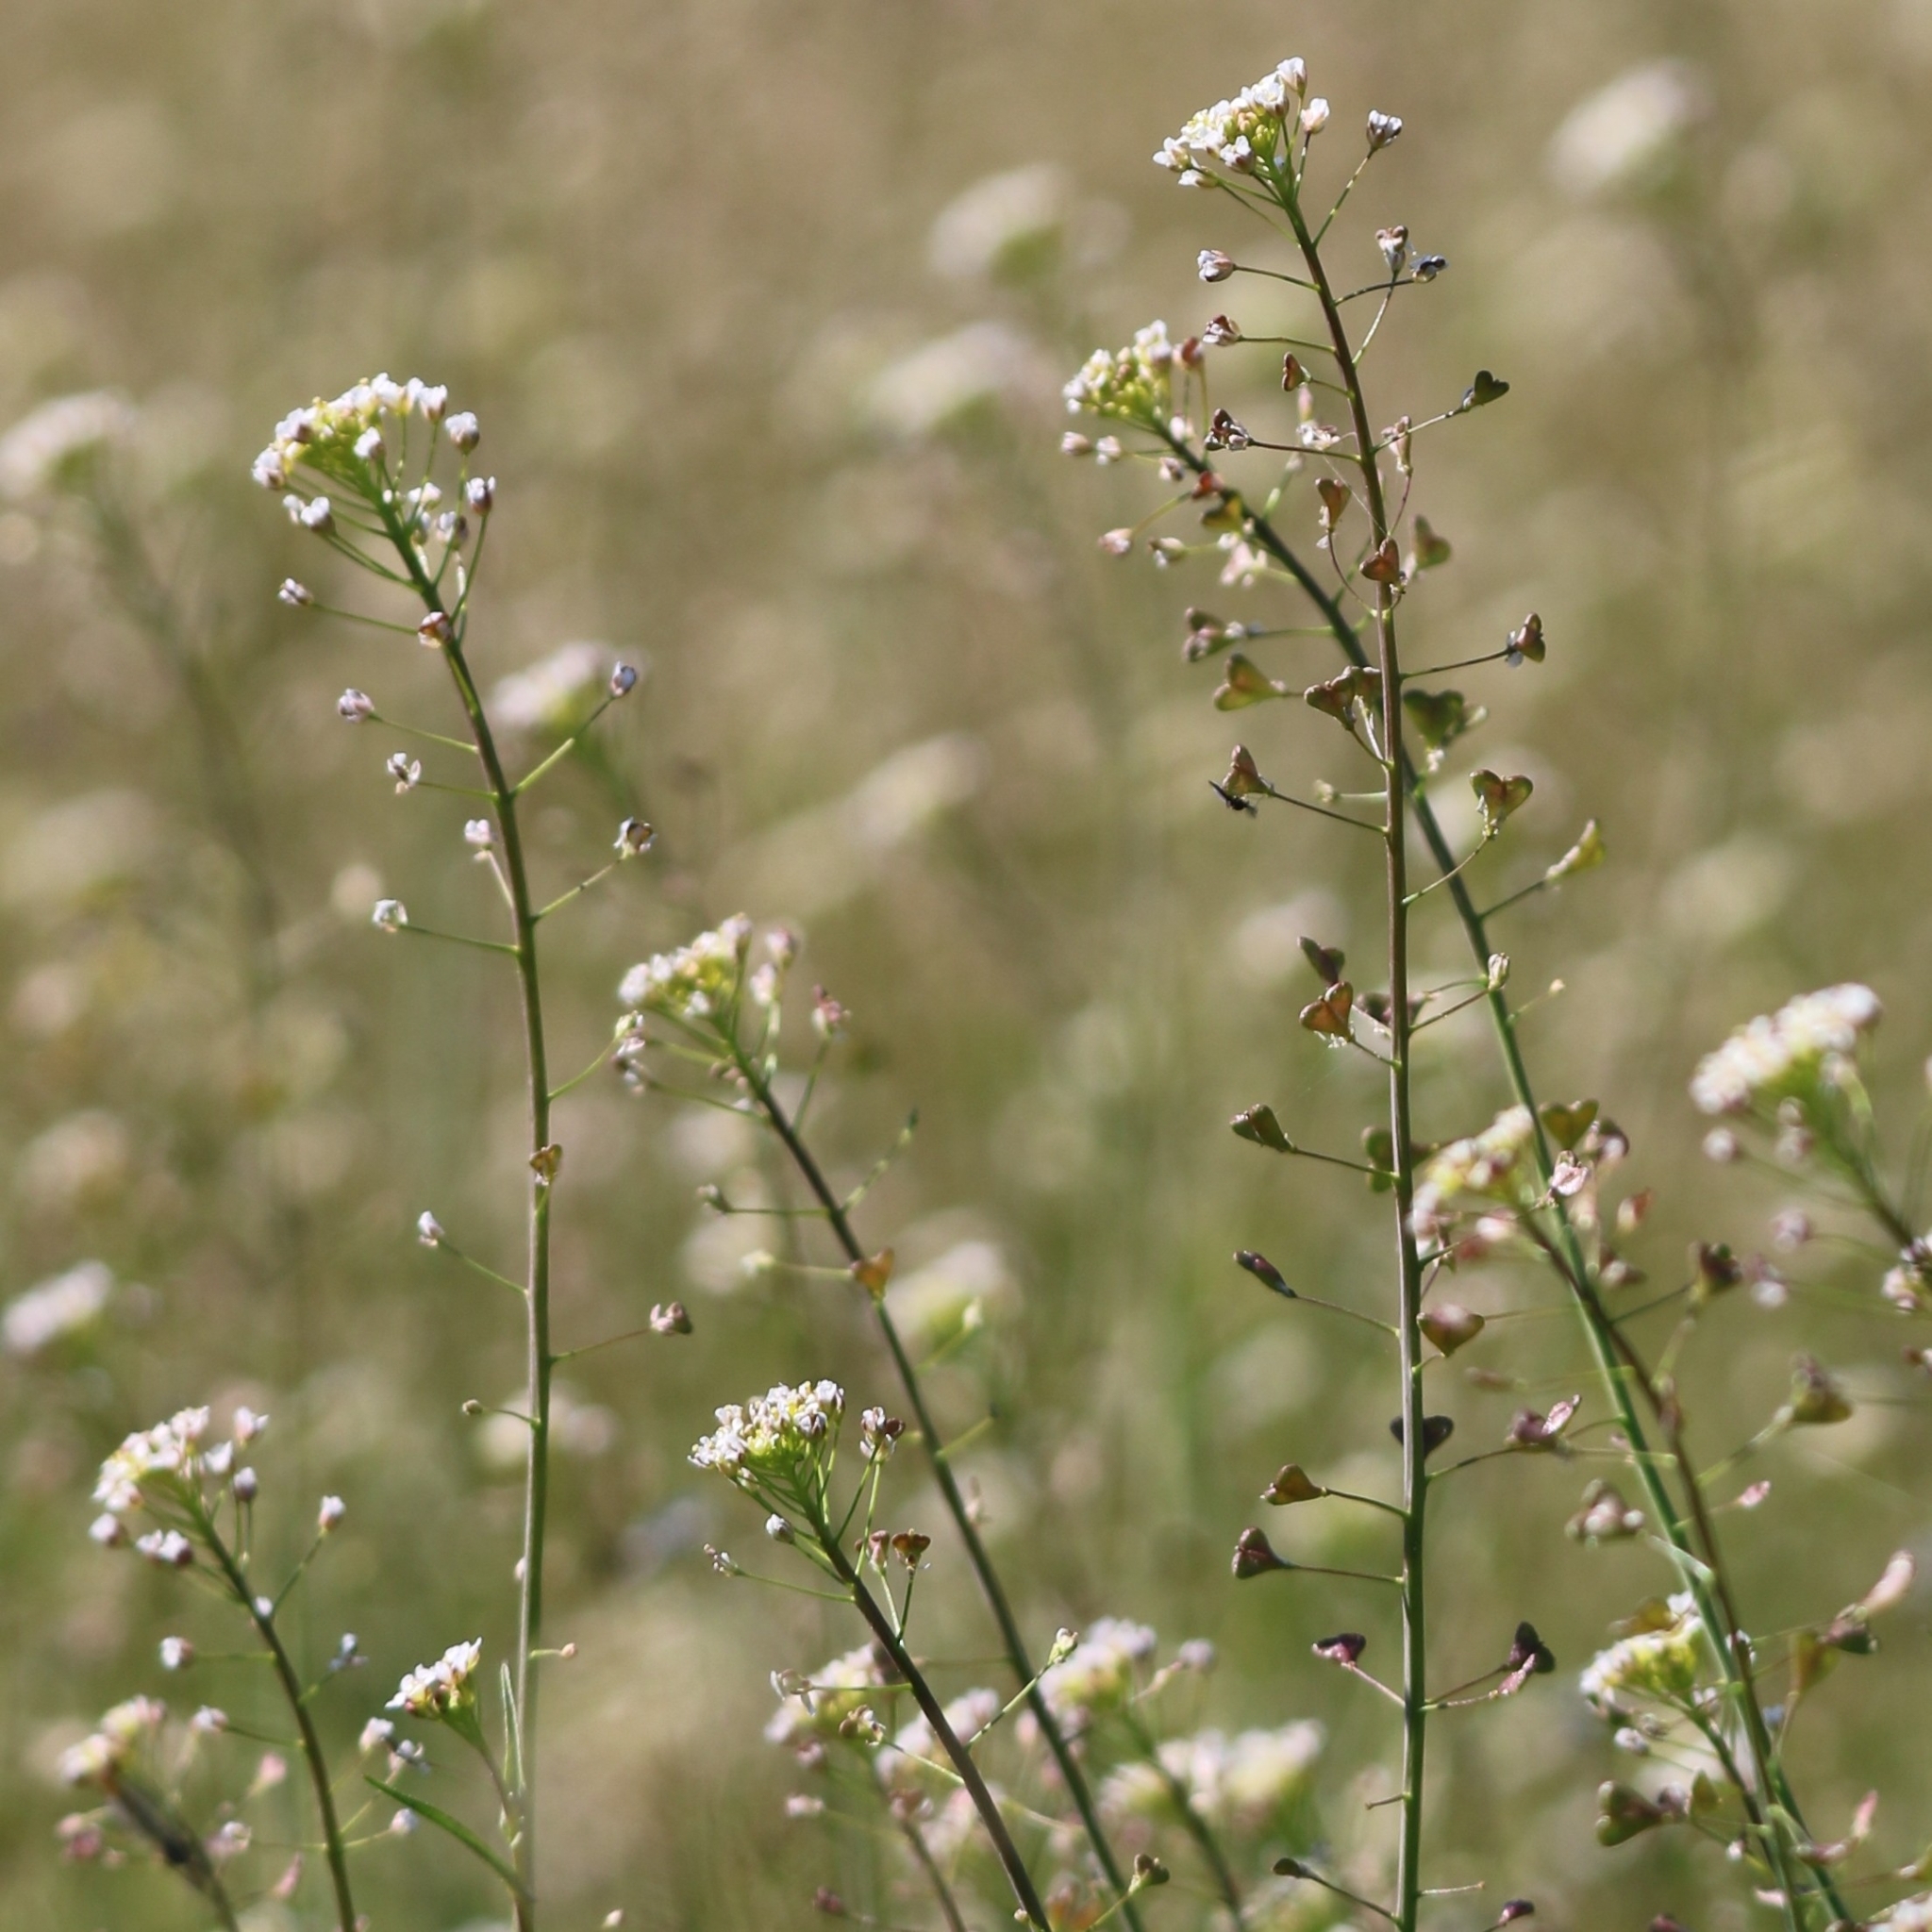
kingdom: Plantae
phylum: Tracheophyta
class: Magnoliopsida
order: Brassicales
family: Brassicaceae
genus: Capsella
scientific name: Capsella bursa-pastoris
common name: Shepherd's purse
